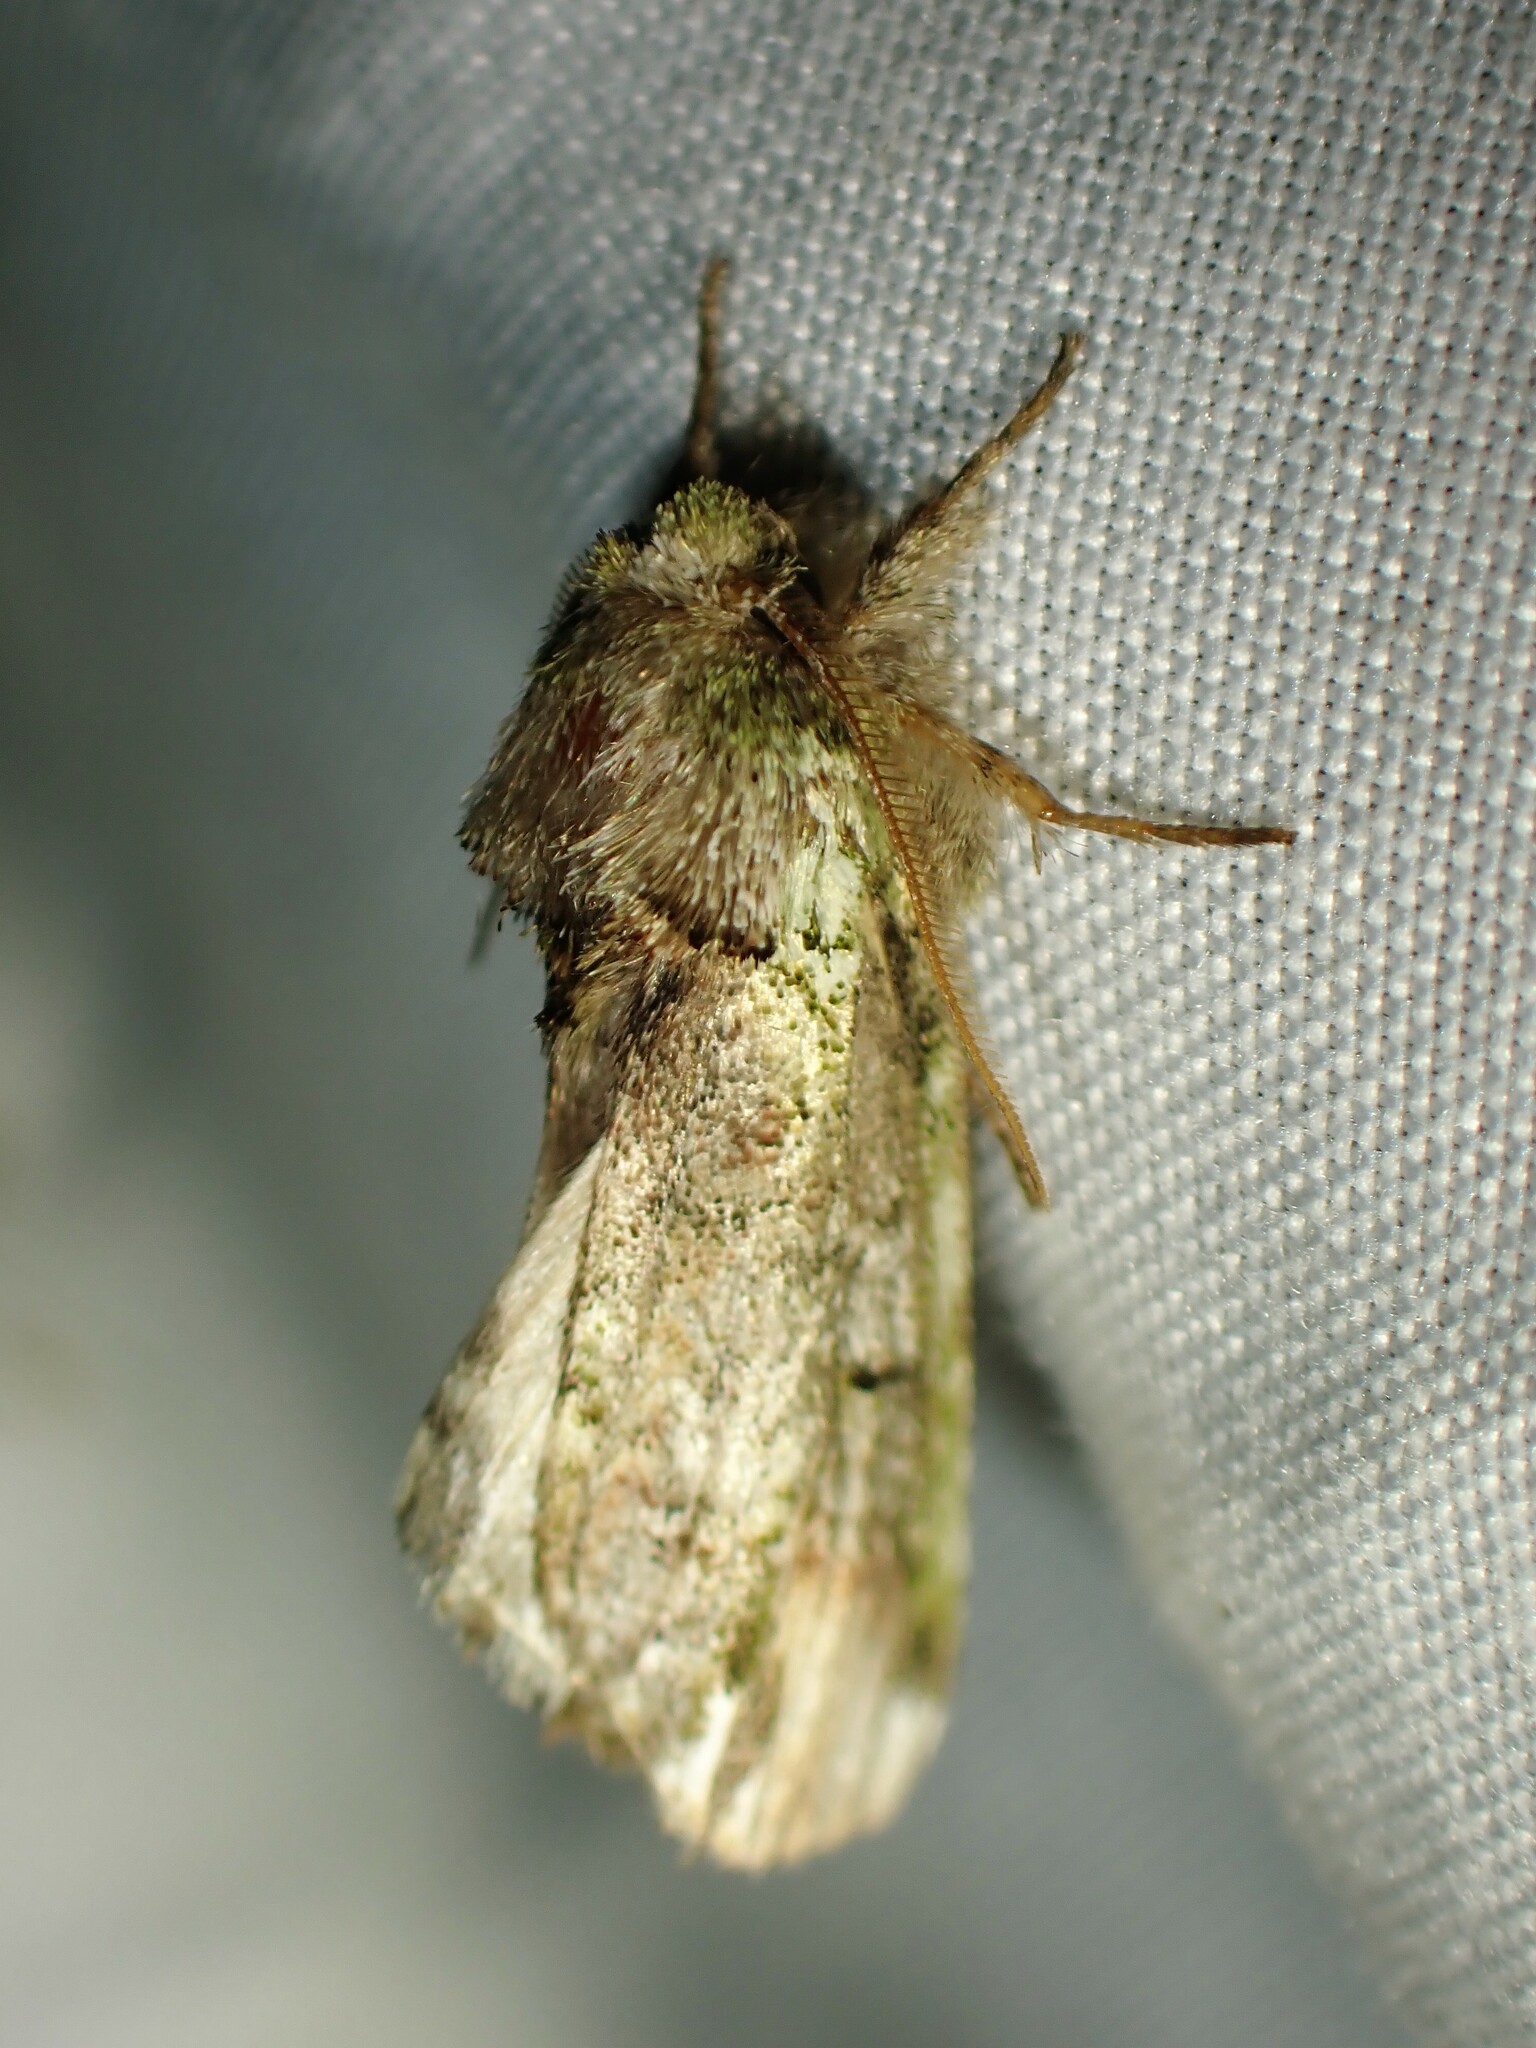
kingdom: Animalia
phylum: Arthropoda
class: Insecta
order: Lepidoptera
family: Notodontidae
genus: Schizura
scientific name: Schizura
